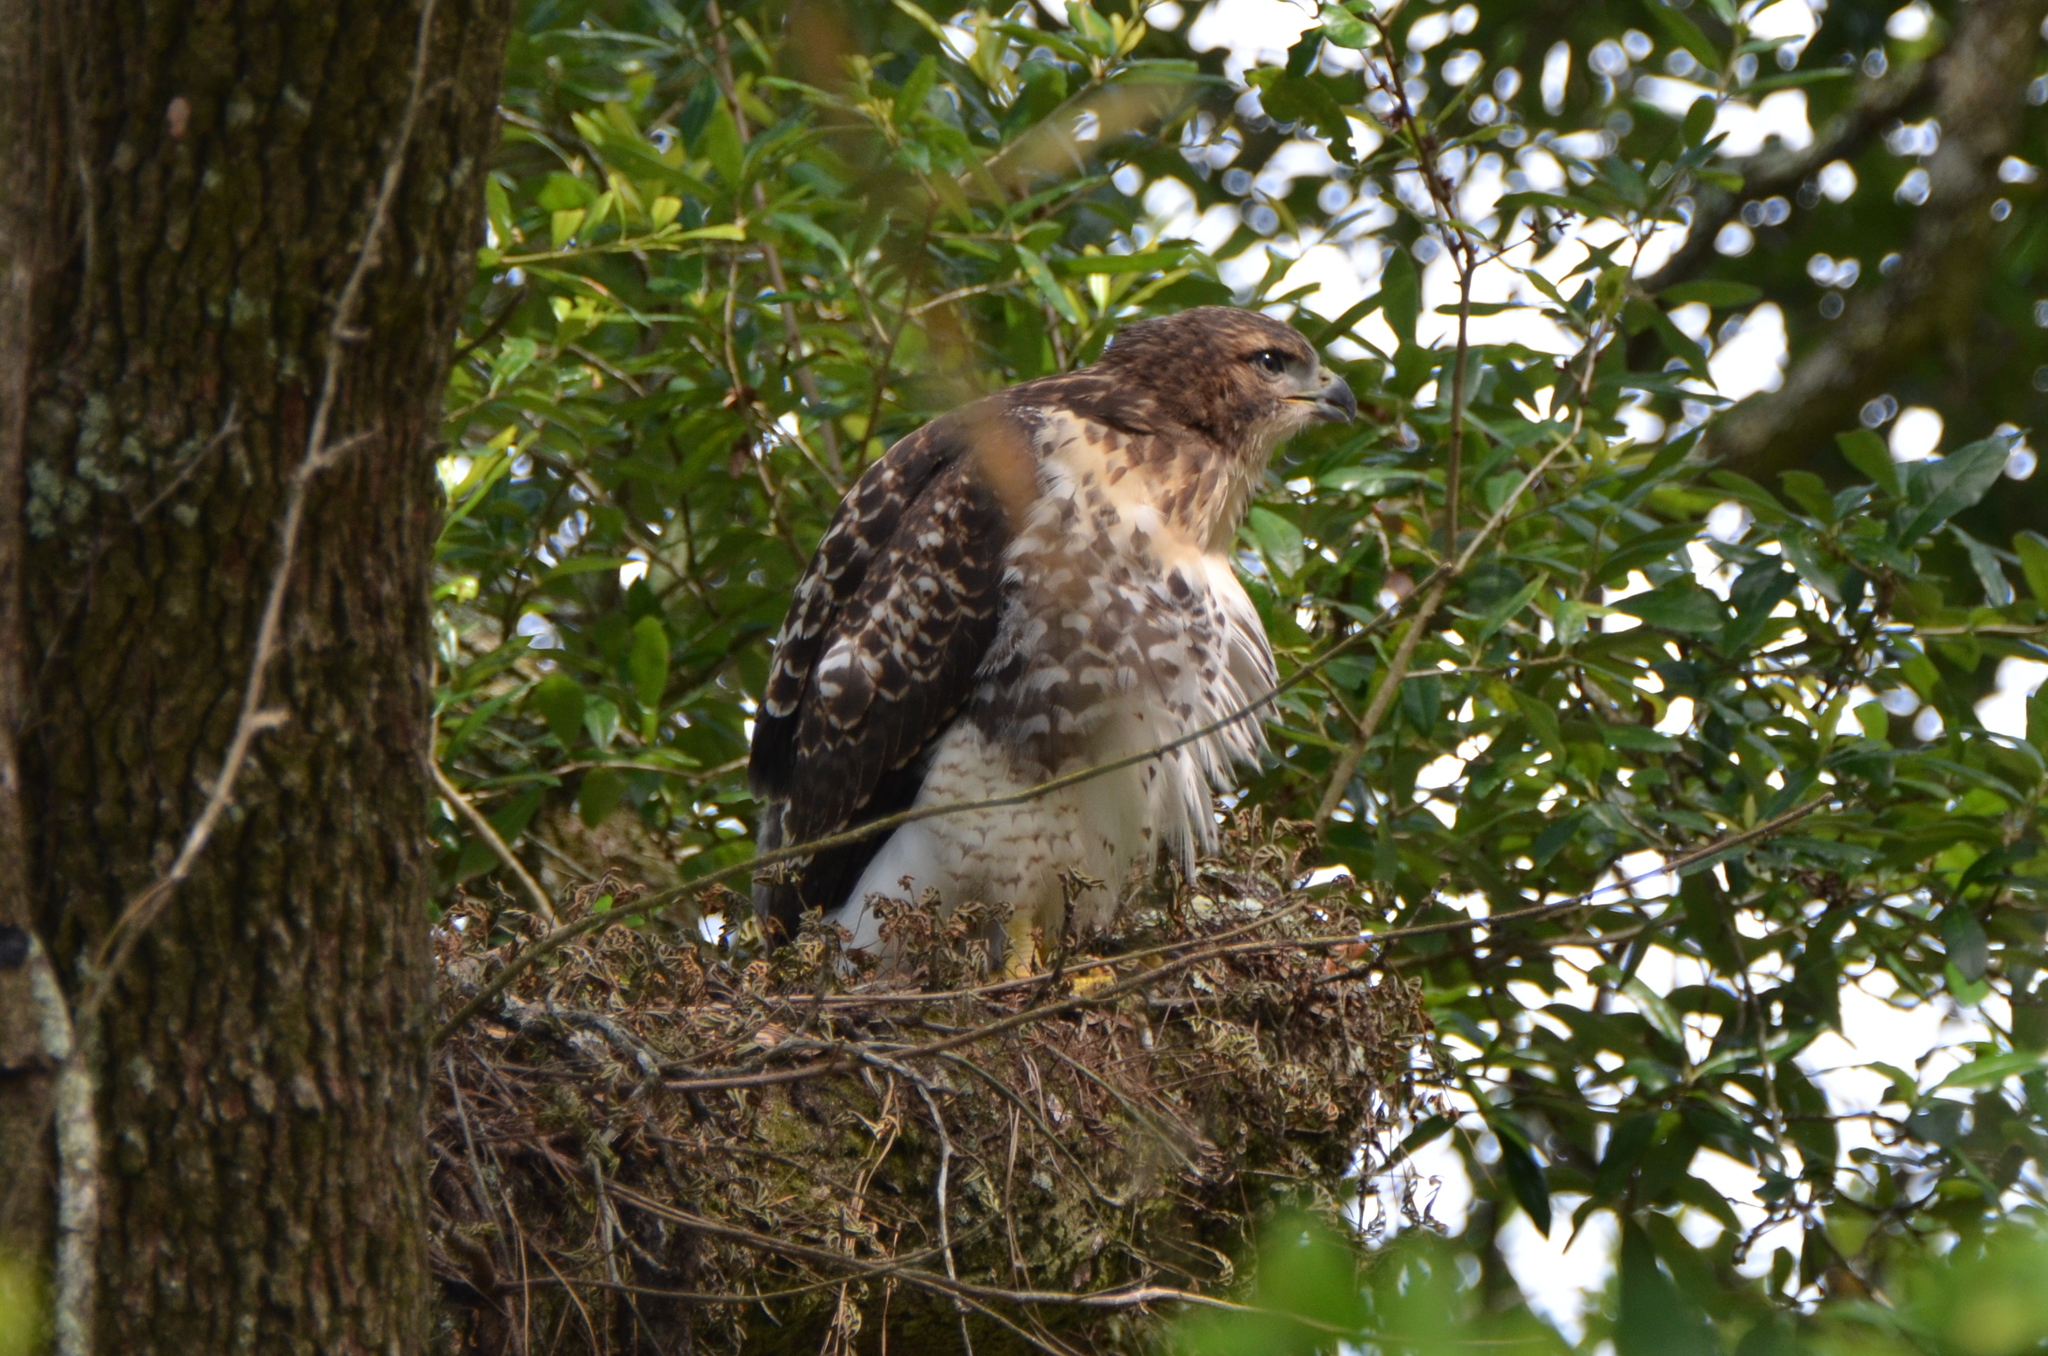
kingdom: Animalia
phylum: Chordata
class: Aves
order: Accipitriformes
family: Accipitridae
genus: Buteo
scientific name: Buteo jamaicensis
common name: Red-tailed hawk
